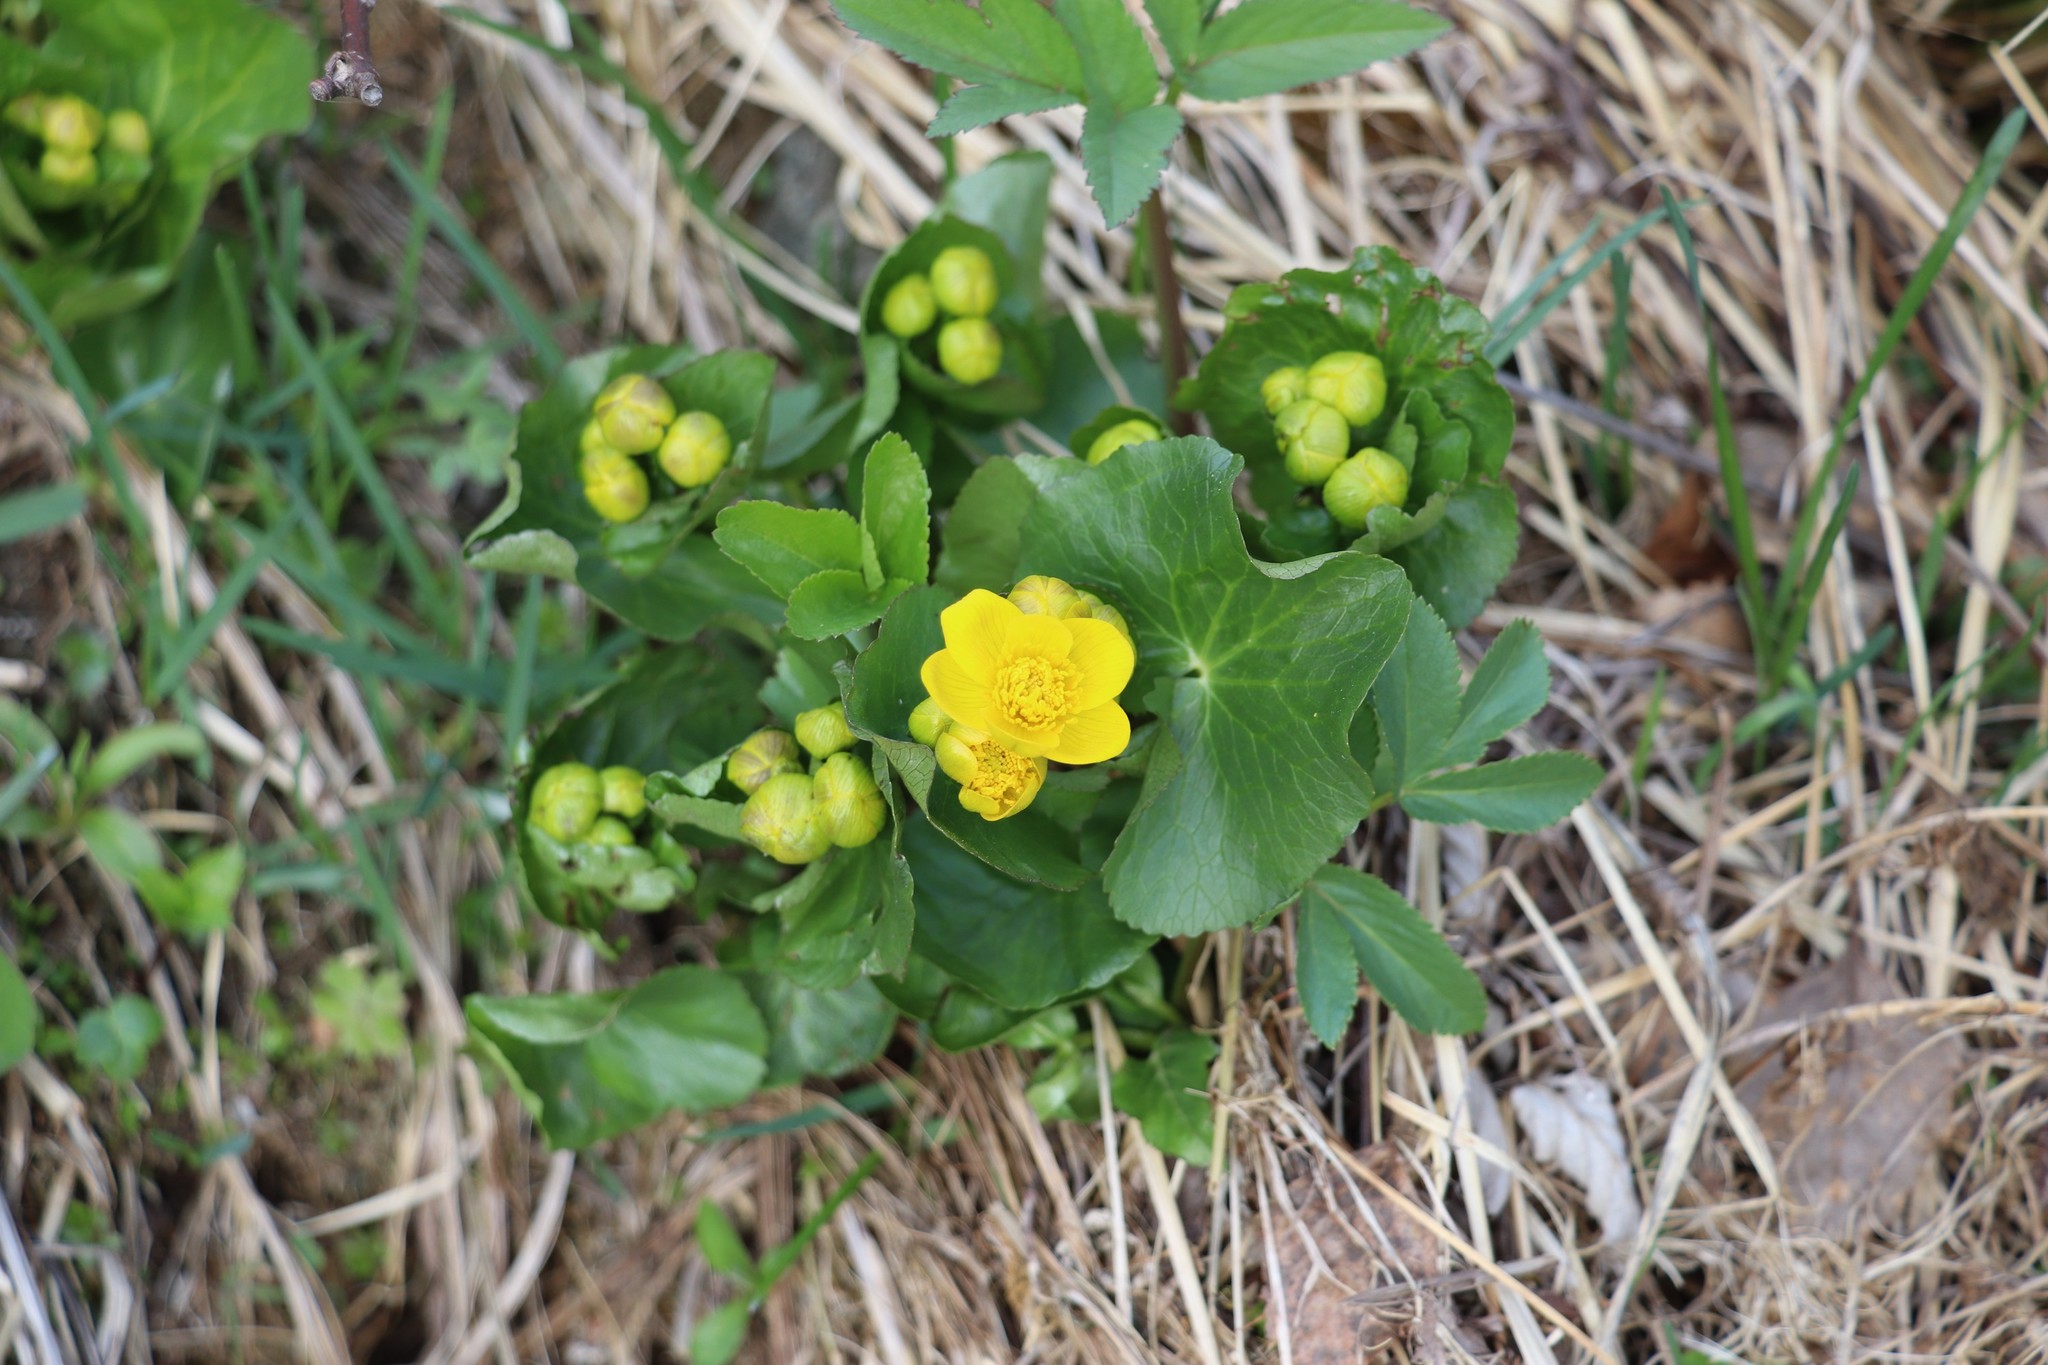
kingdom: Plantae
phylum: Tracheophyta
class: Magnoliopsida
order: Ranunculales
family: Ranunculaceae
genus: Caltha
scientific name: Caltha palustris
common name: Marsh marigold
